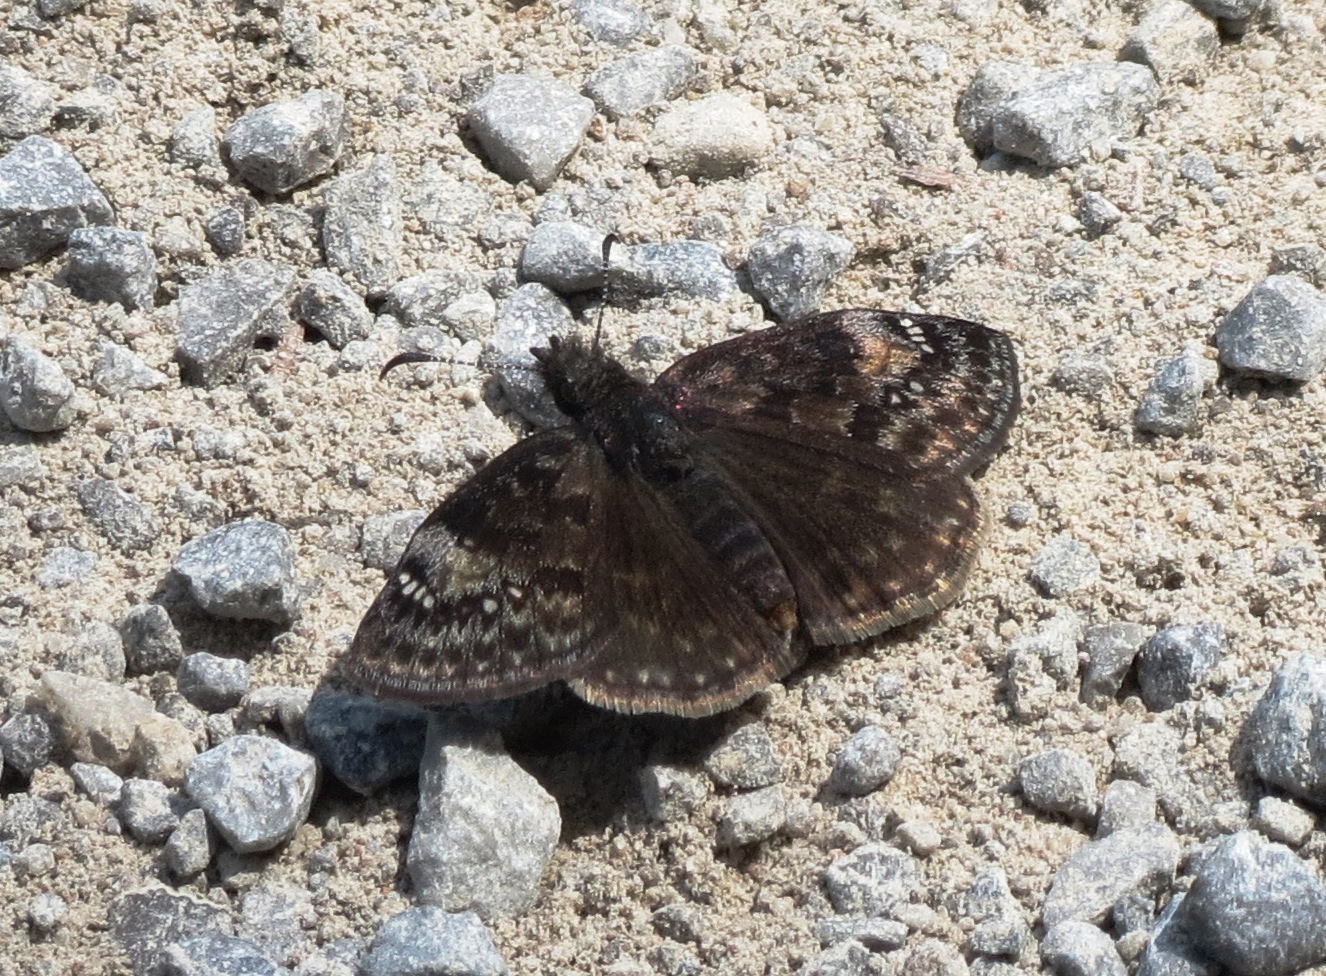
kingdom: Animalia
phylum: Arthropoda
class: Insecta
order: Lepidoptera
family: Hesperiidae
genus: Erynnis
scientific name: Erynnis lucilius
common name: Columbine duskywing
